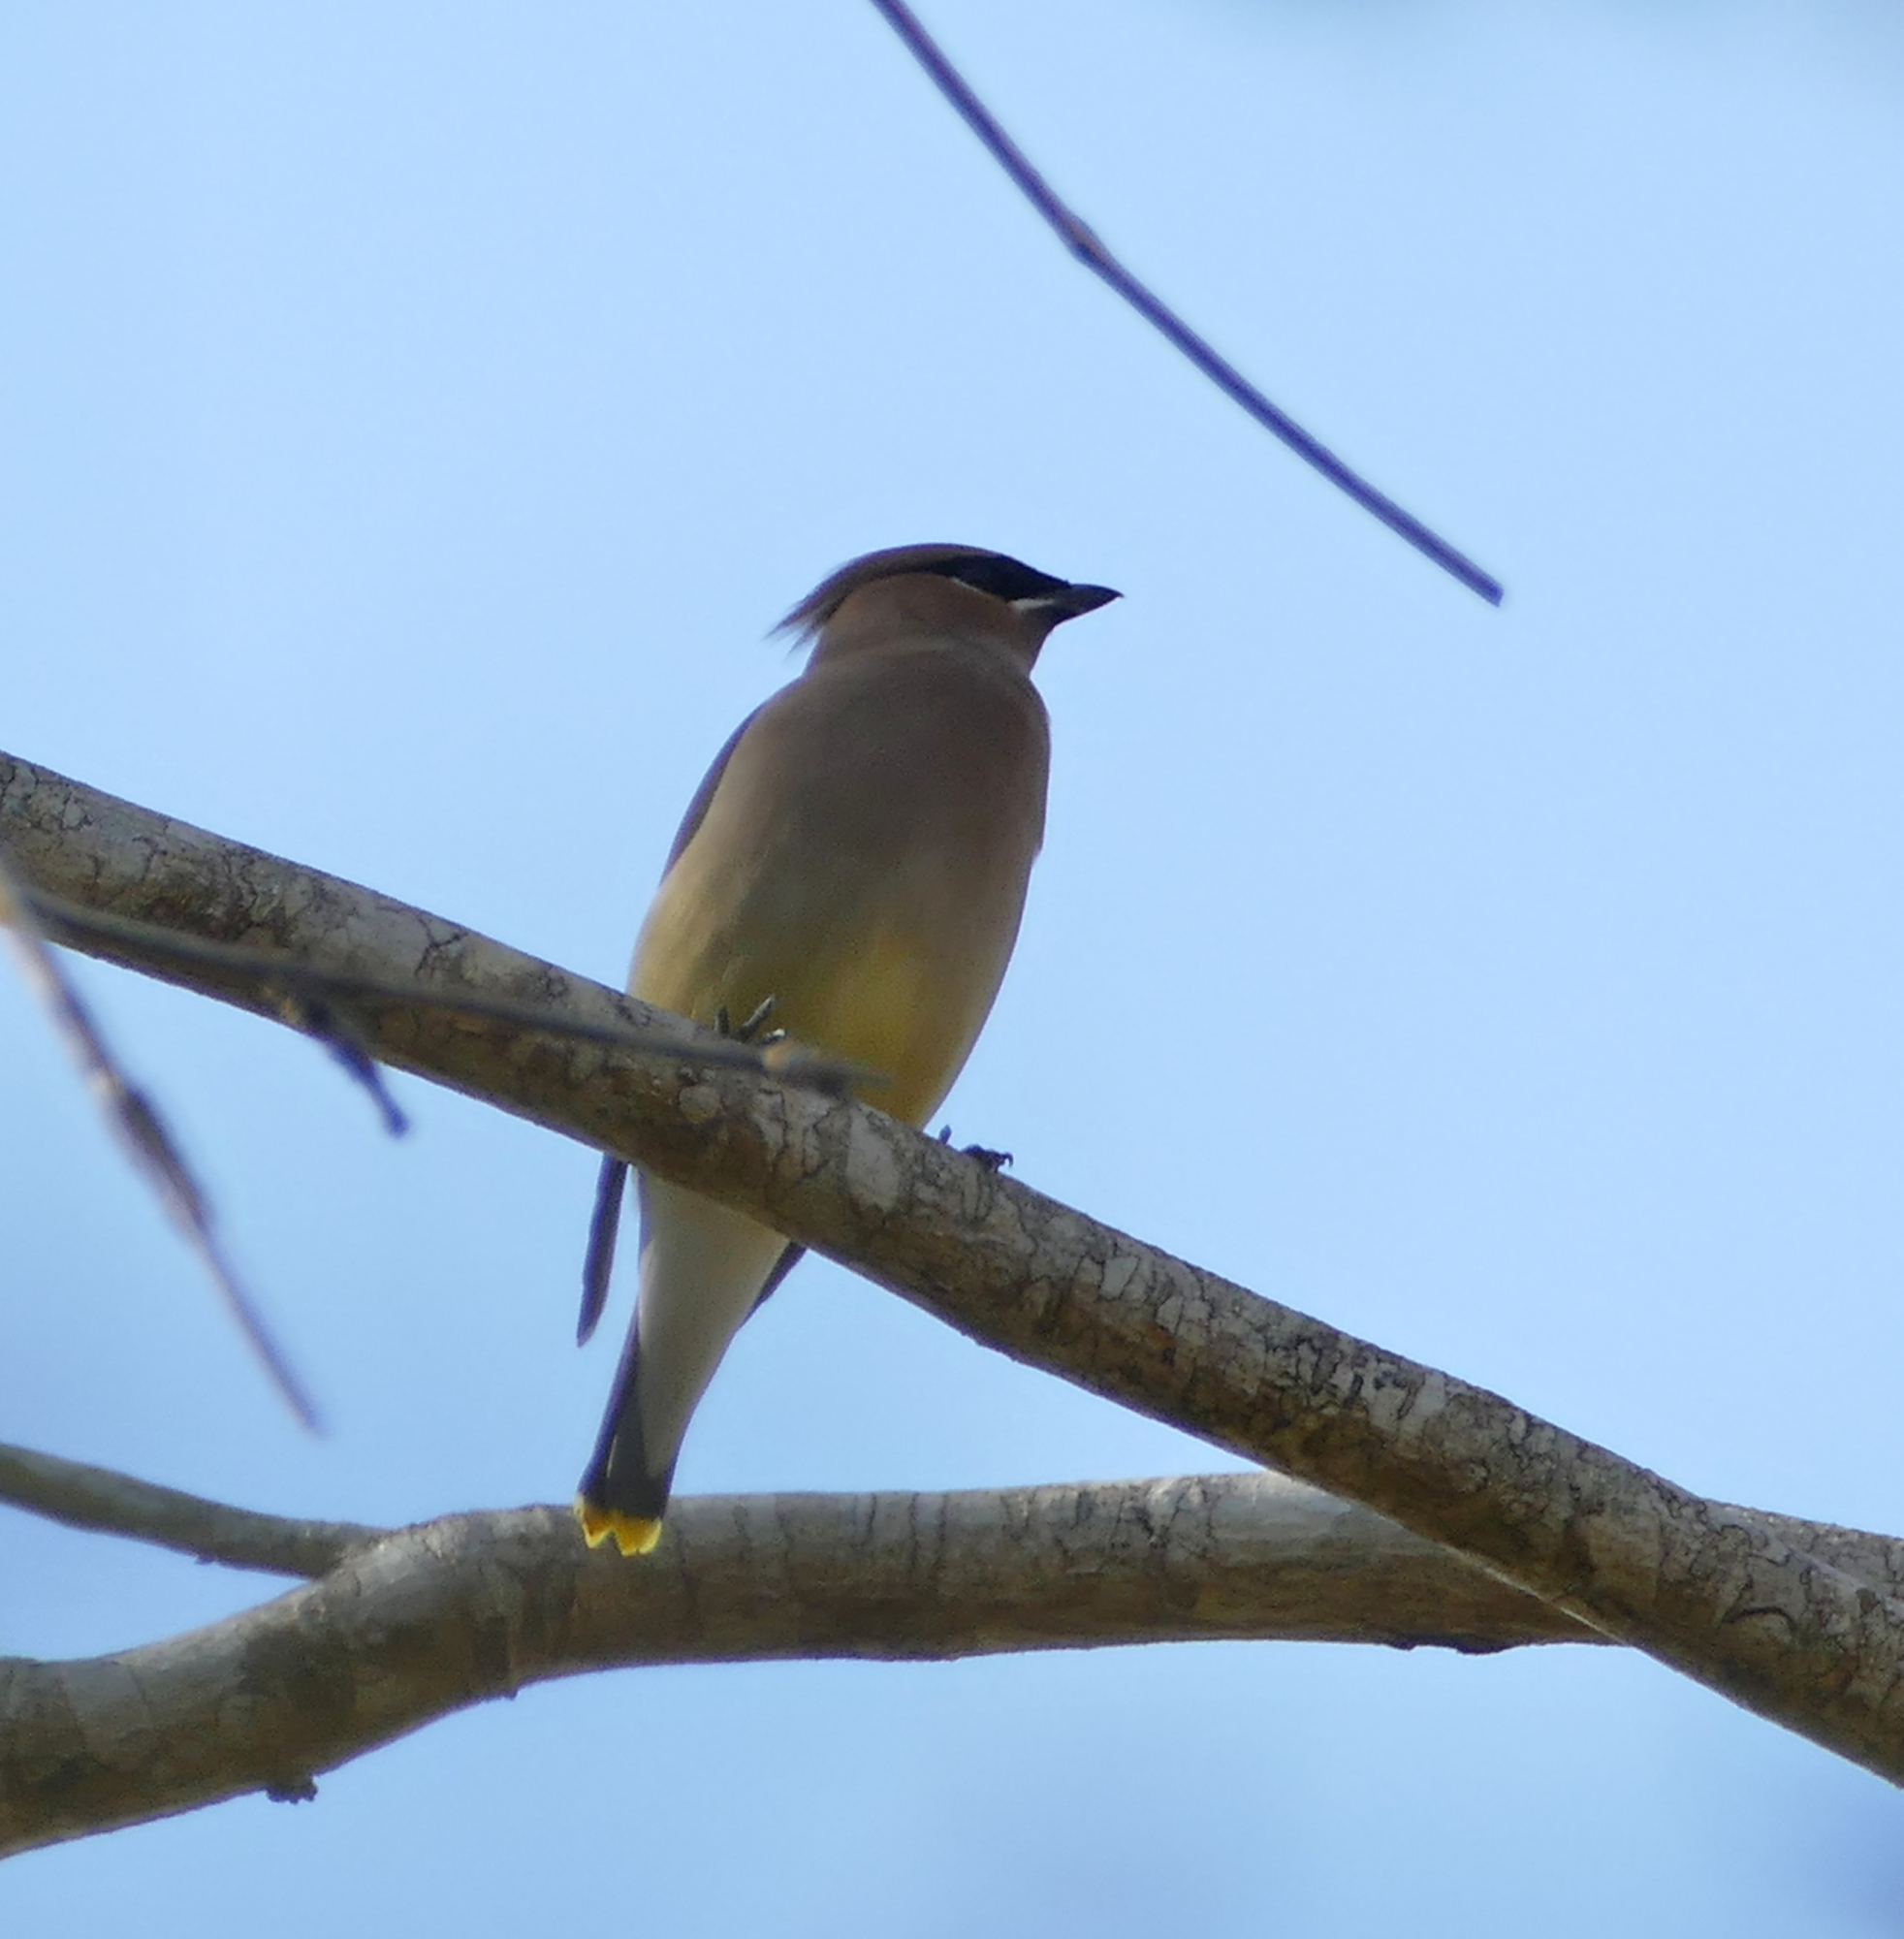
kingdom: Animalia
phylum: Chordata
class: Aves
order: Passeriformes
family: Bombycillidae
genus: Bombycilla
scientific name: Bombycilla cedrorum
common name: Cedar waxwing
